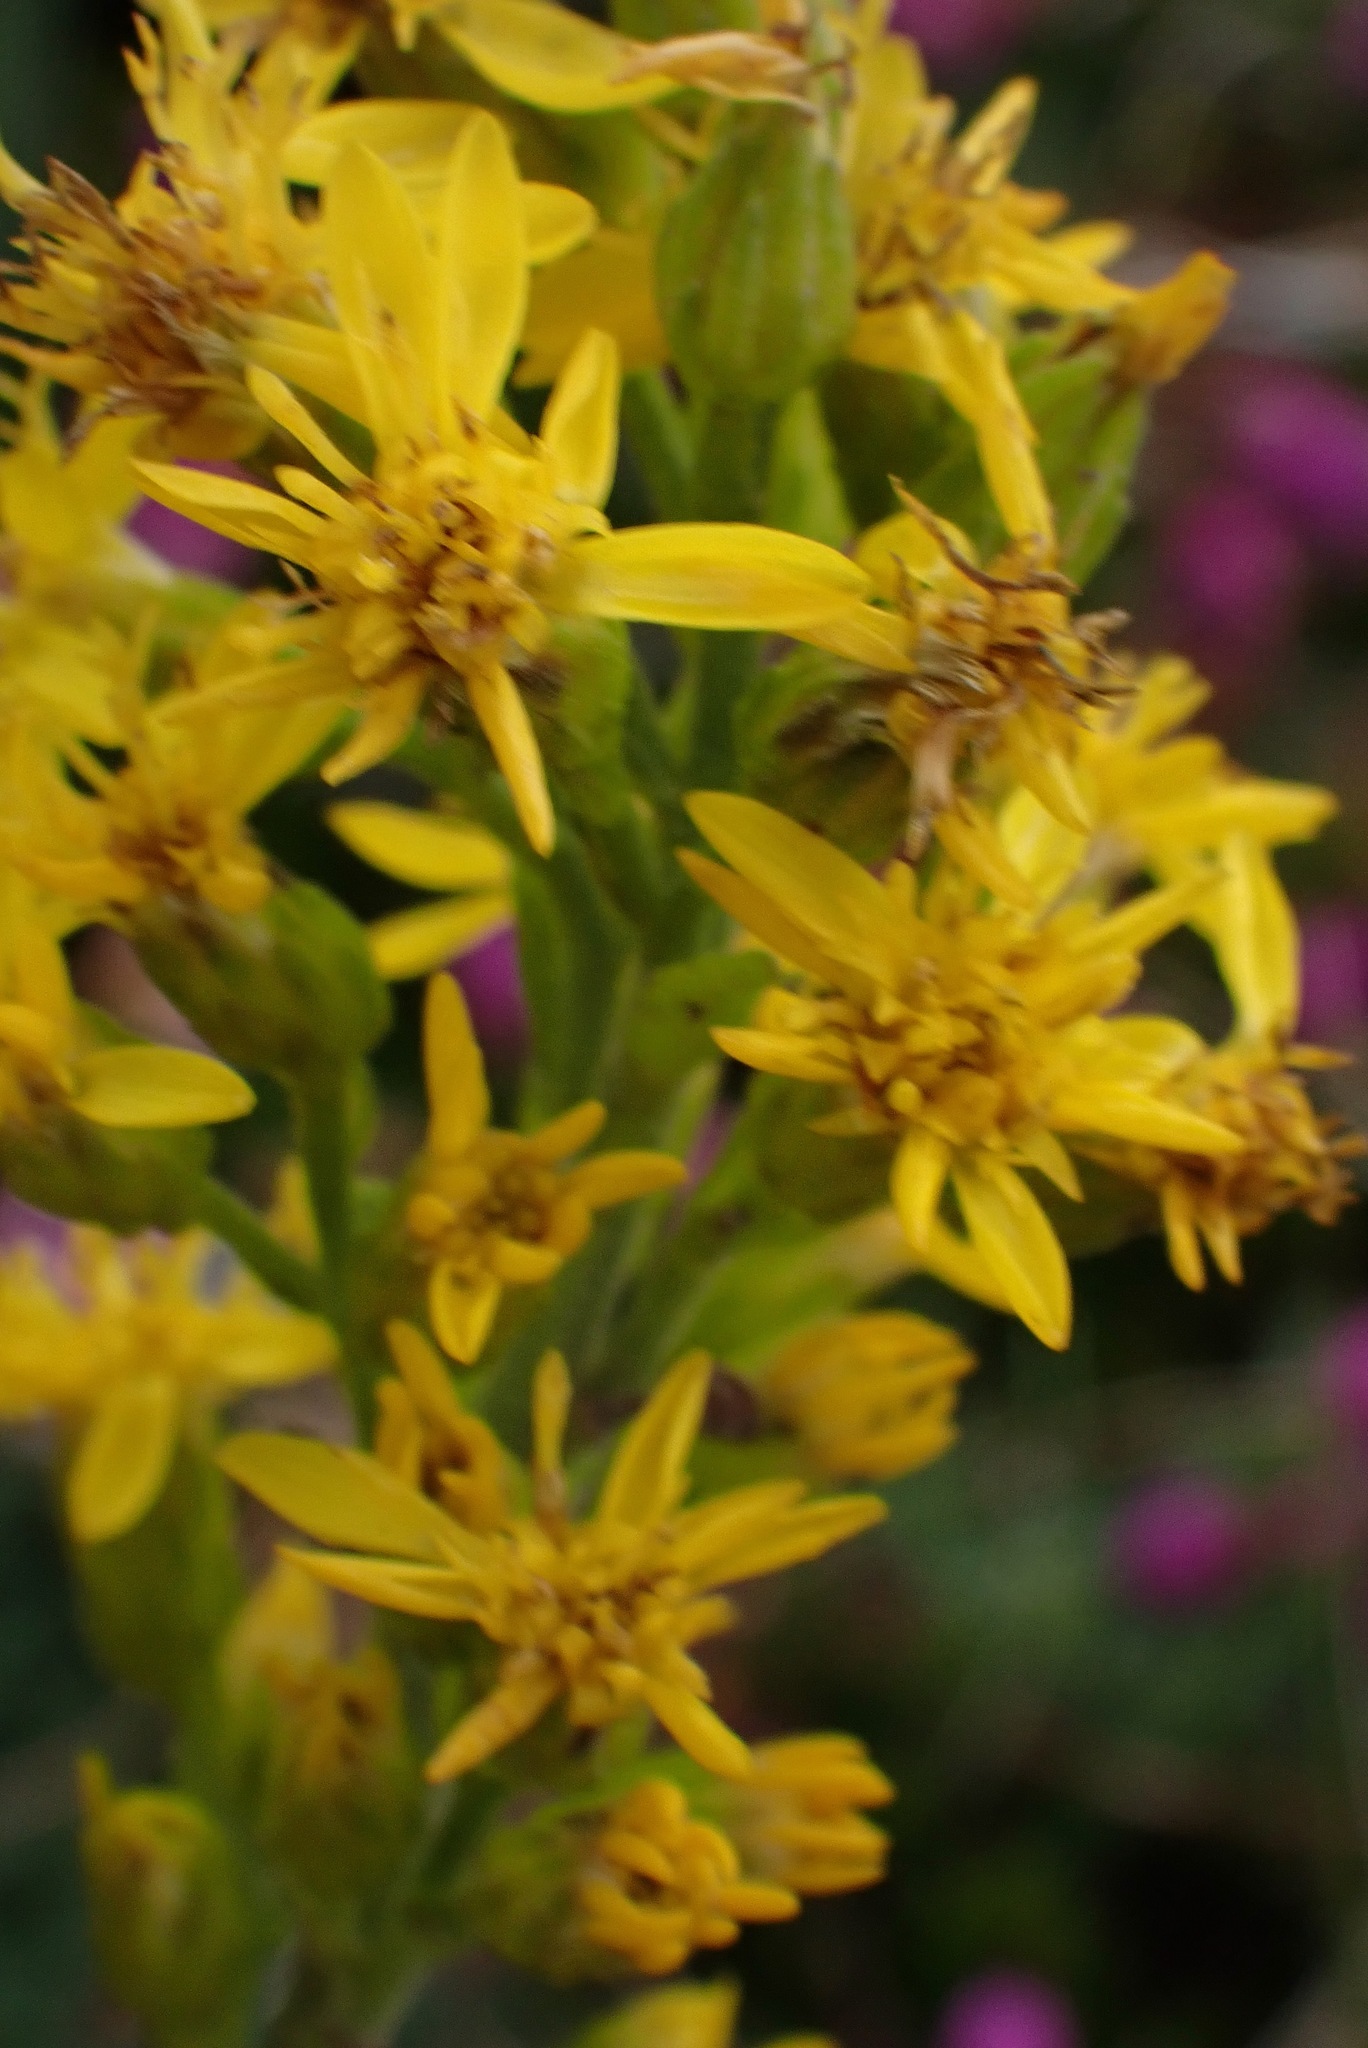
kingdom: Plantae
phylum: Tracheophyta
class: Magnoliopsida
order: Asterales
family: Asteraceae
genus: Solidago
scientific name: Solidago virgaurea
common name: Goldenrod
